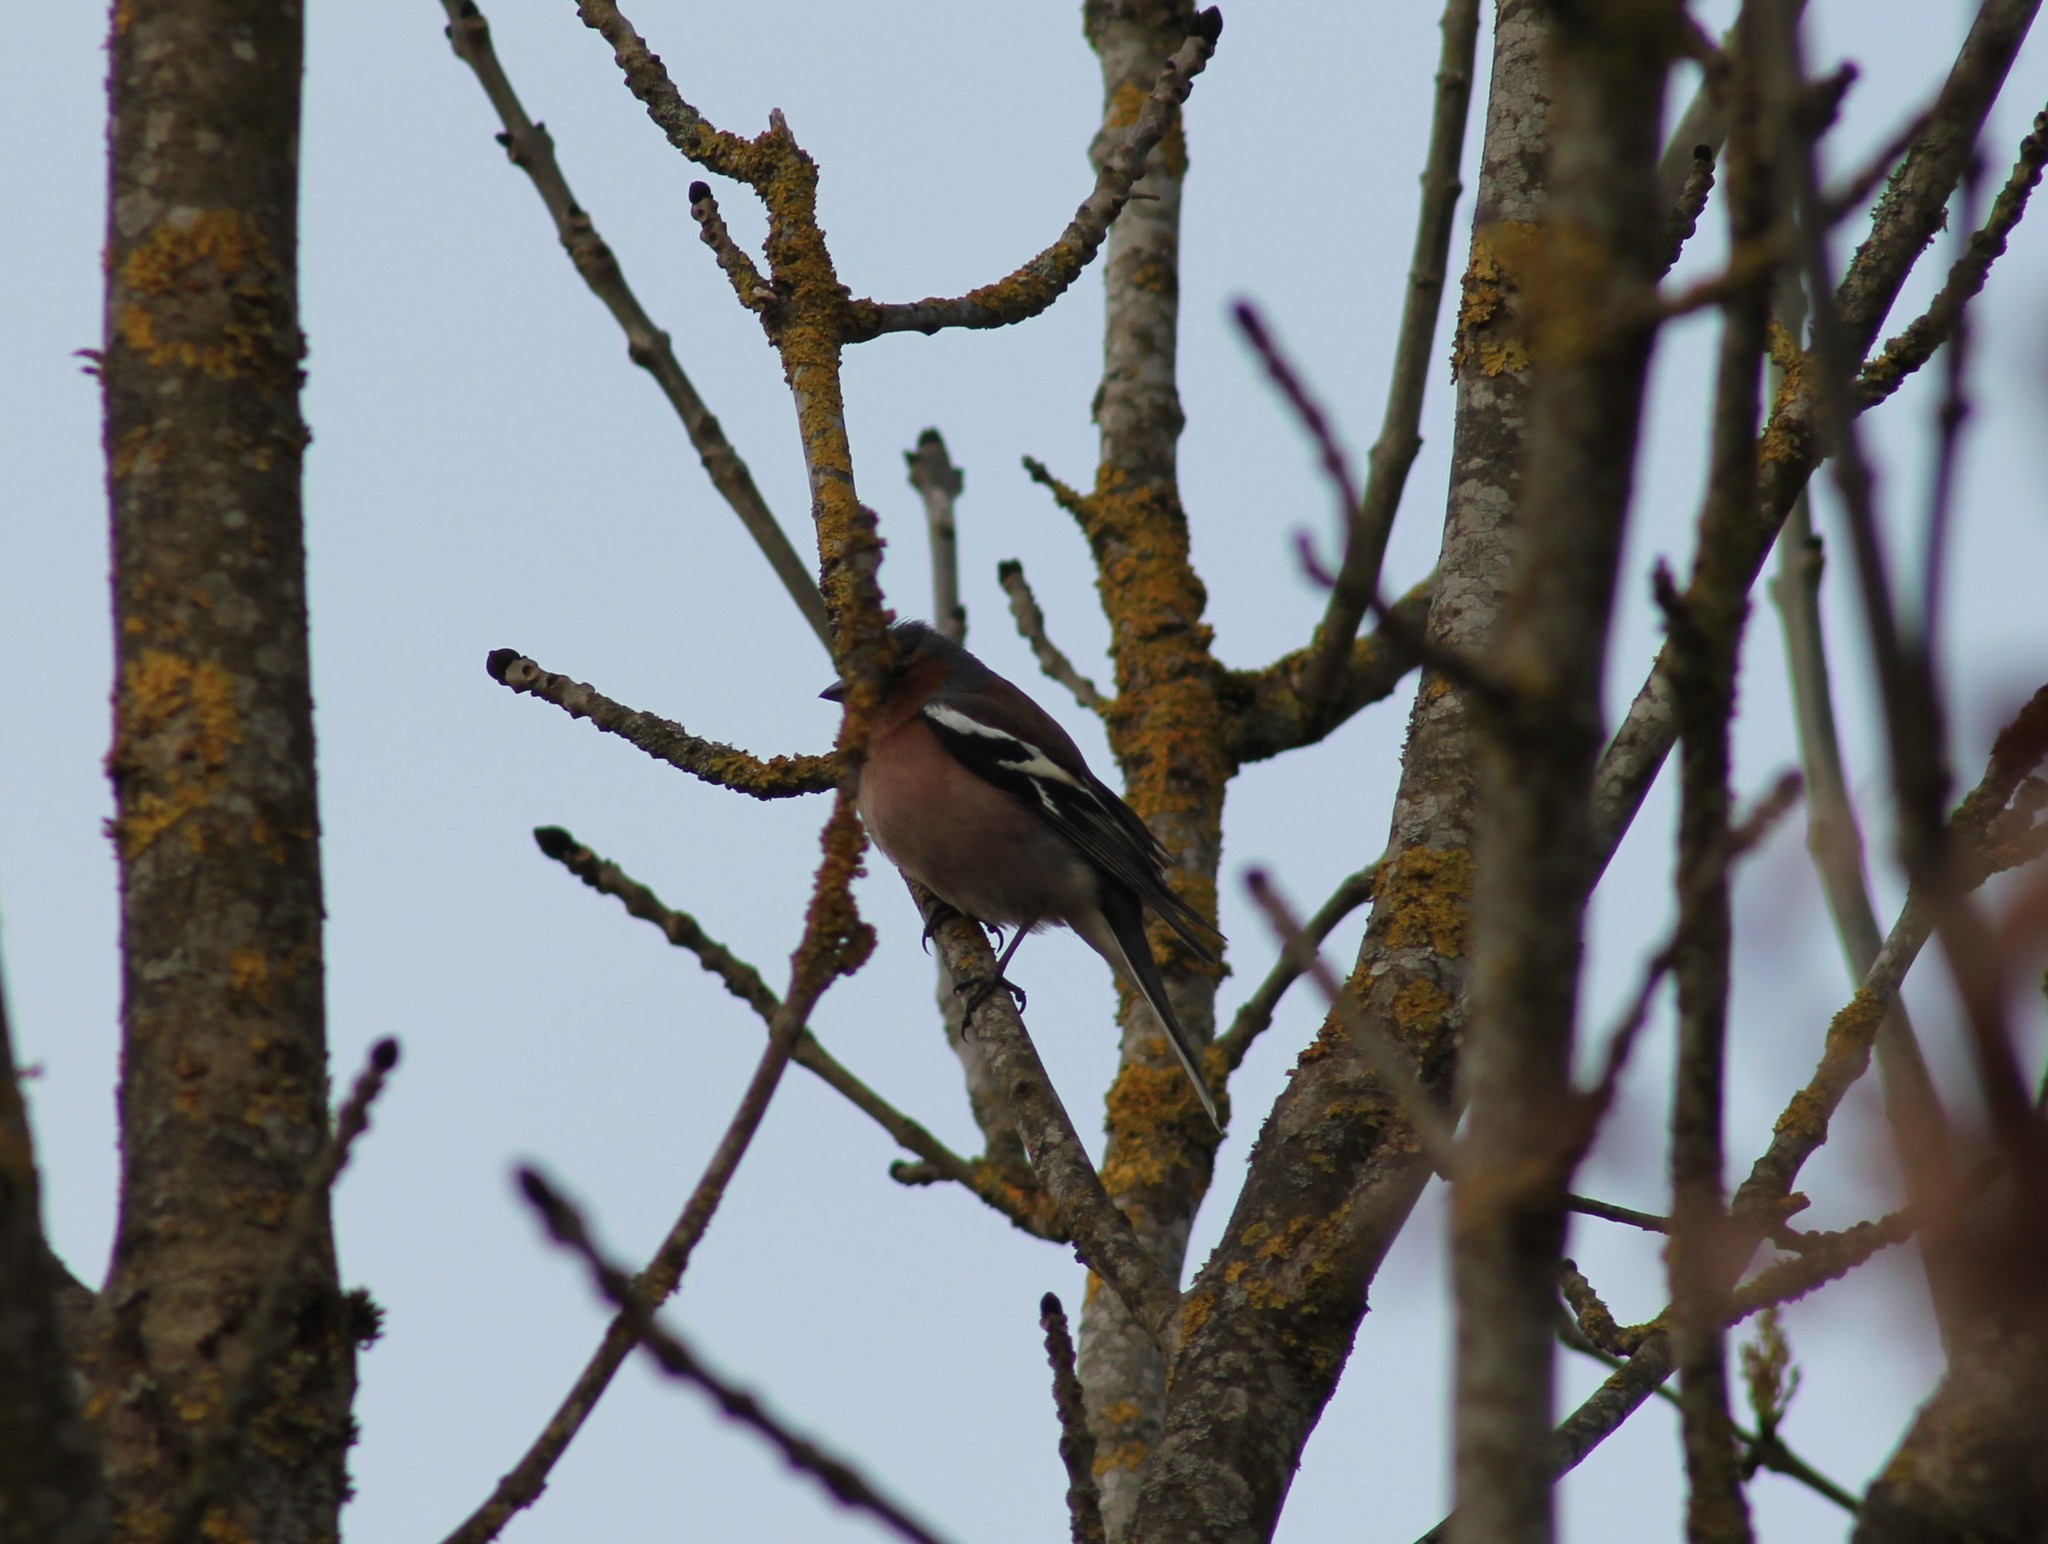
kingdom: Animalia
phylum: Chordata
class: Aves
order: Passeriformes
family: Fringillidae
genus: Fringilla
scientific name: Fringilla coelebs
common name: Common chaffinch
